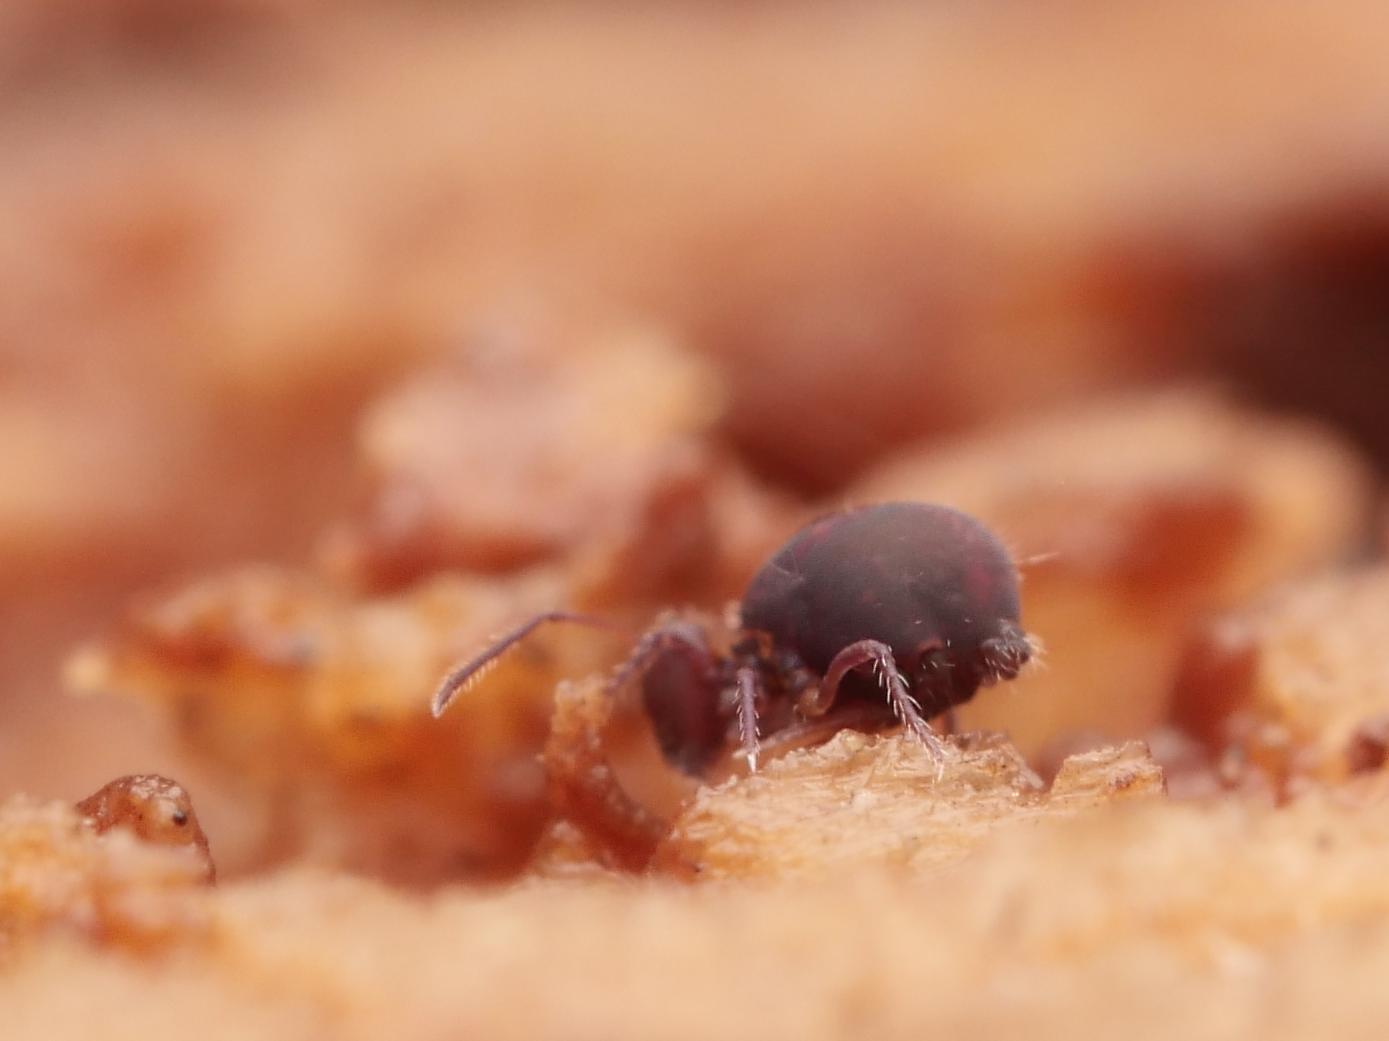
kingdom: Animalia
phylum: Arthropoda
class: Collembola
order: Symphypleona
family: Dicyrtomidae
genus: Dicyrtoma
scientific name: Dicyrtoma fusca
